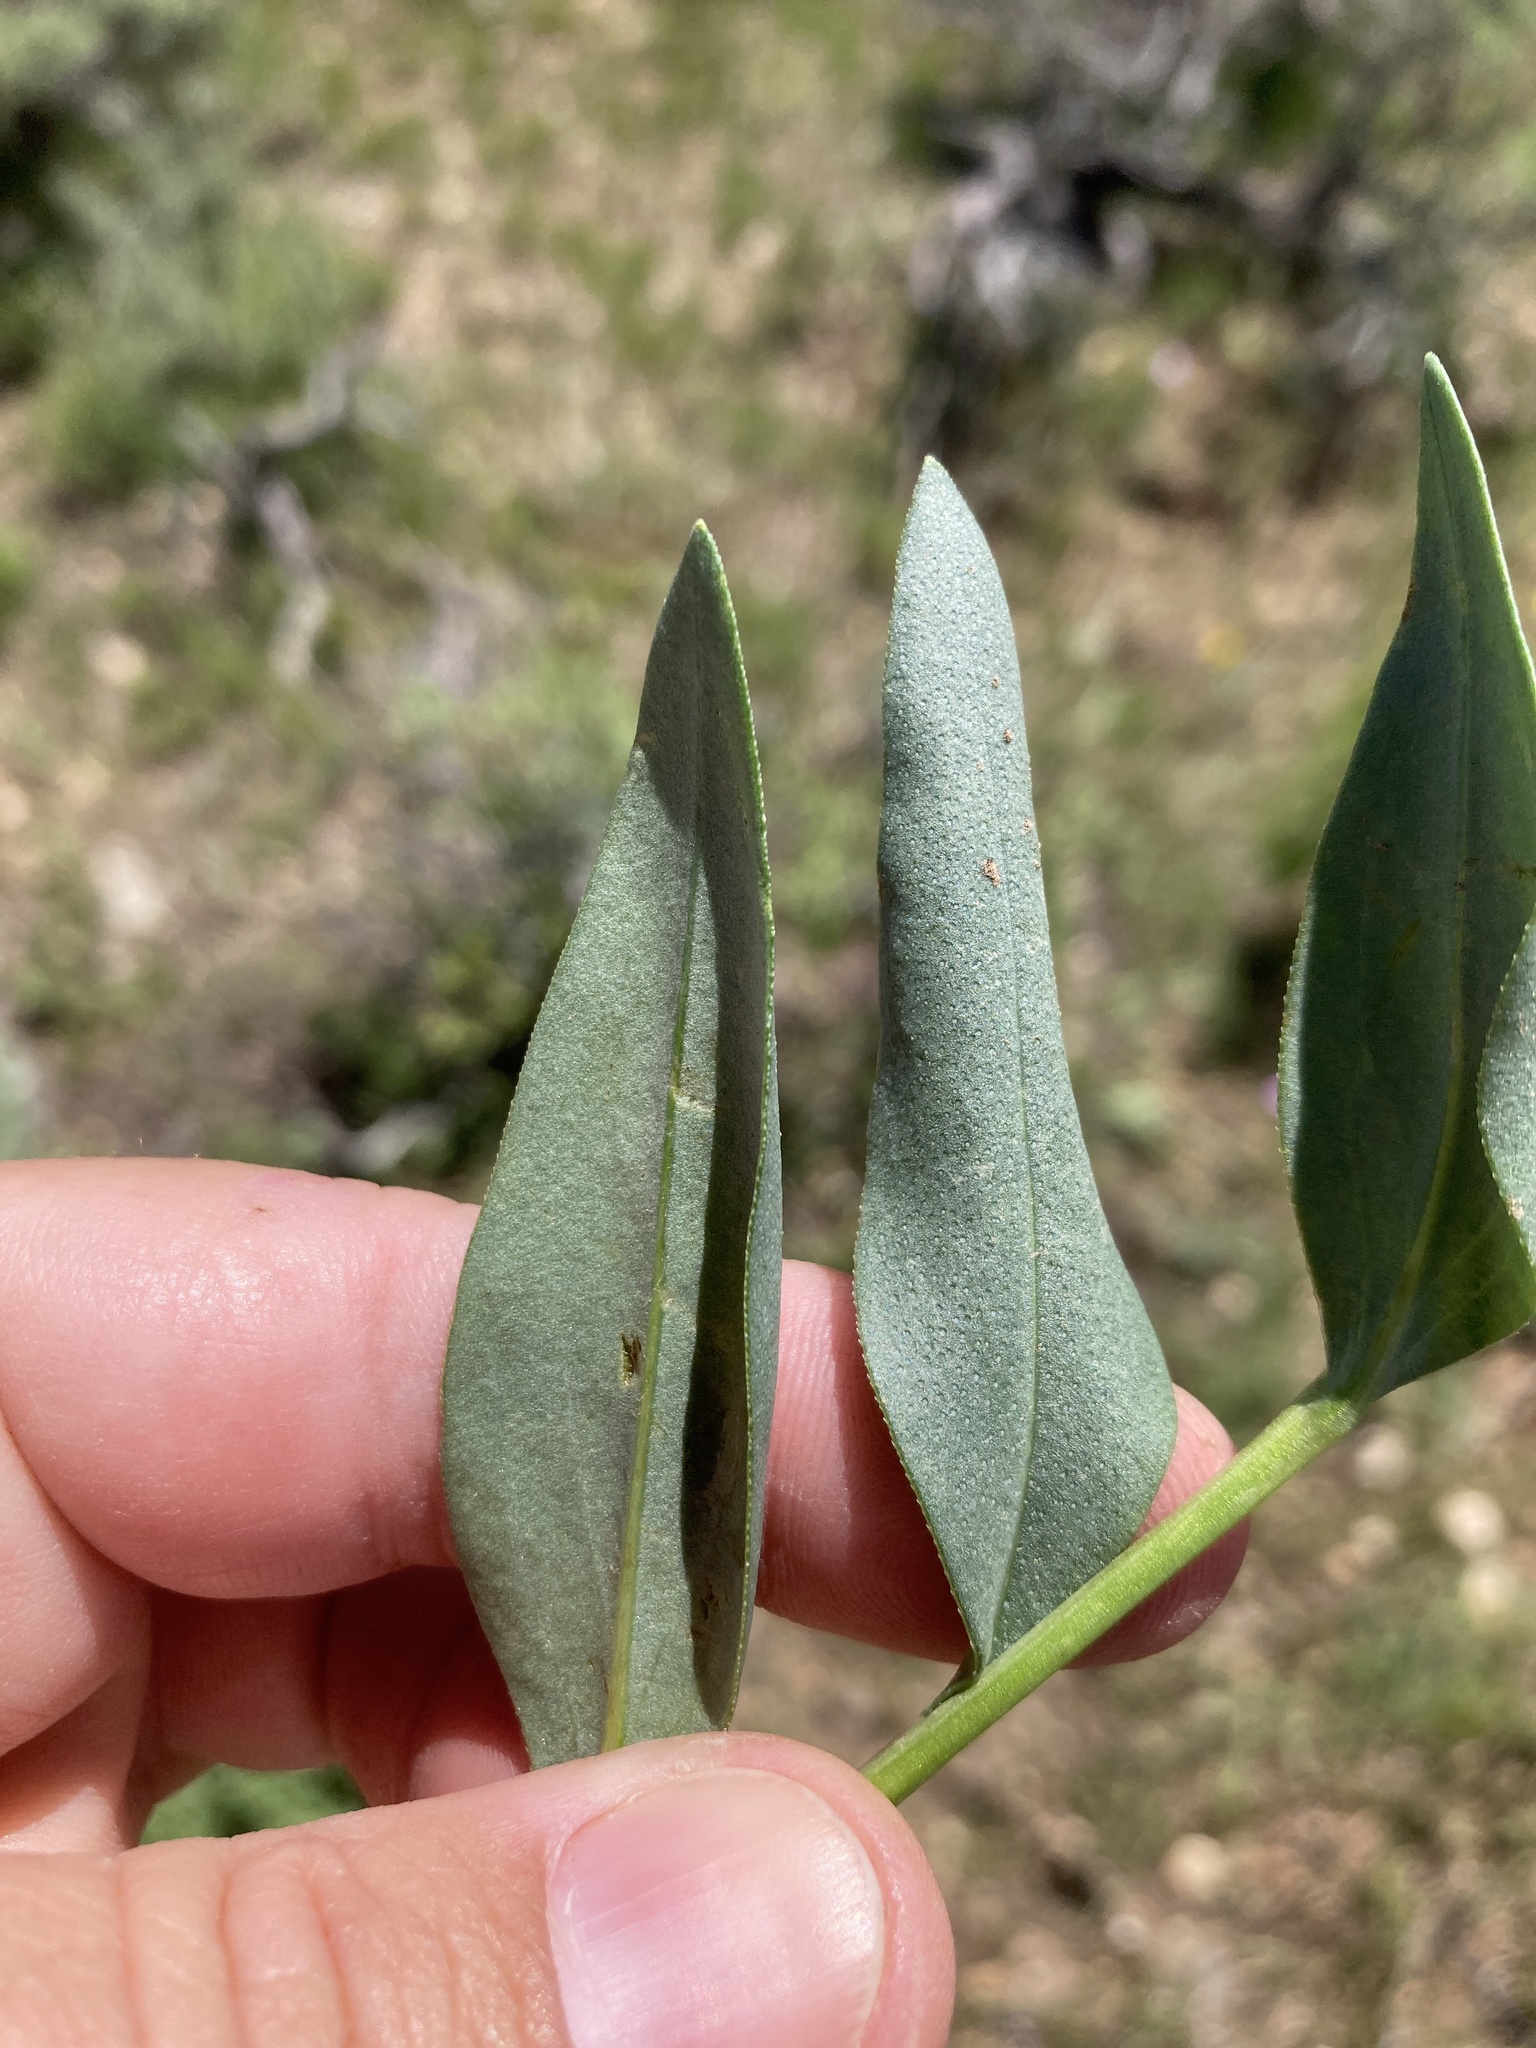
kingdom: Plantae
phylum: Tracheophyta
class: Magnoliopsida
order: Boraginales
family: Boraginaceae
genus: Mertensia
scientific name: Mertensia lanceolata
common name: Lance-leaved bluebells
